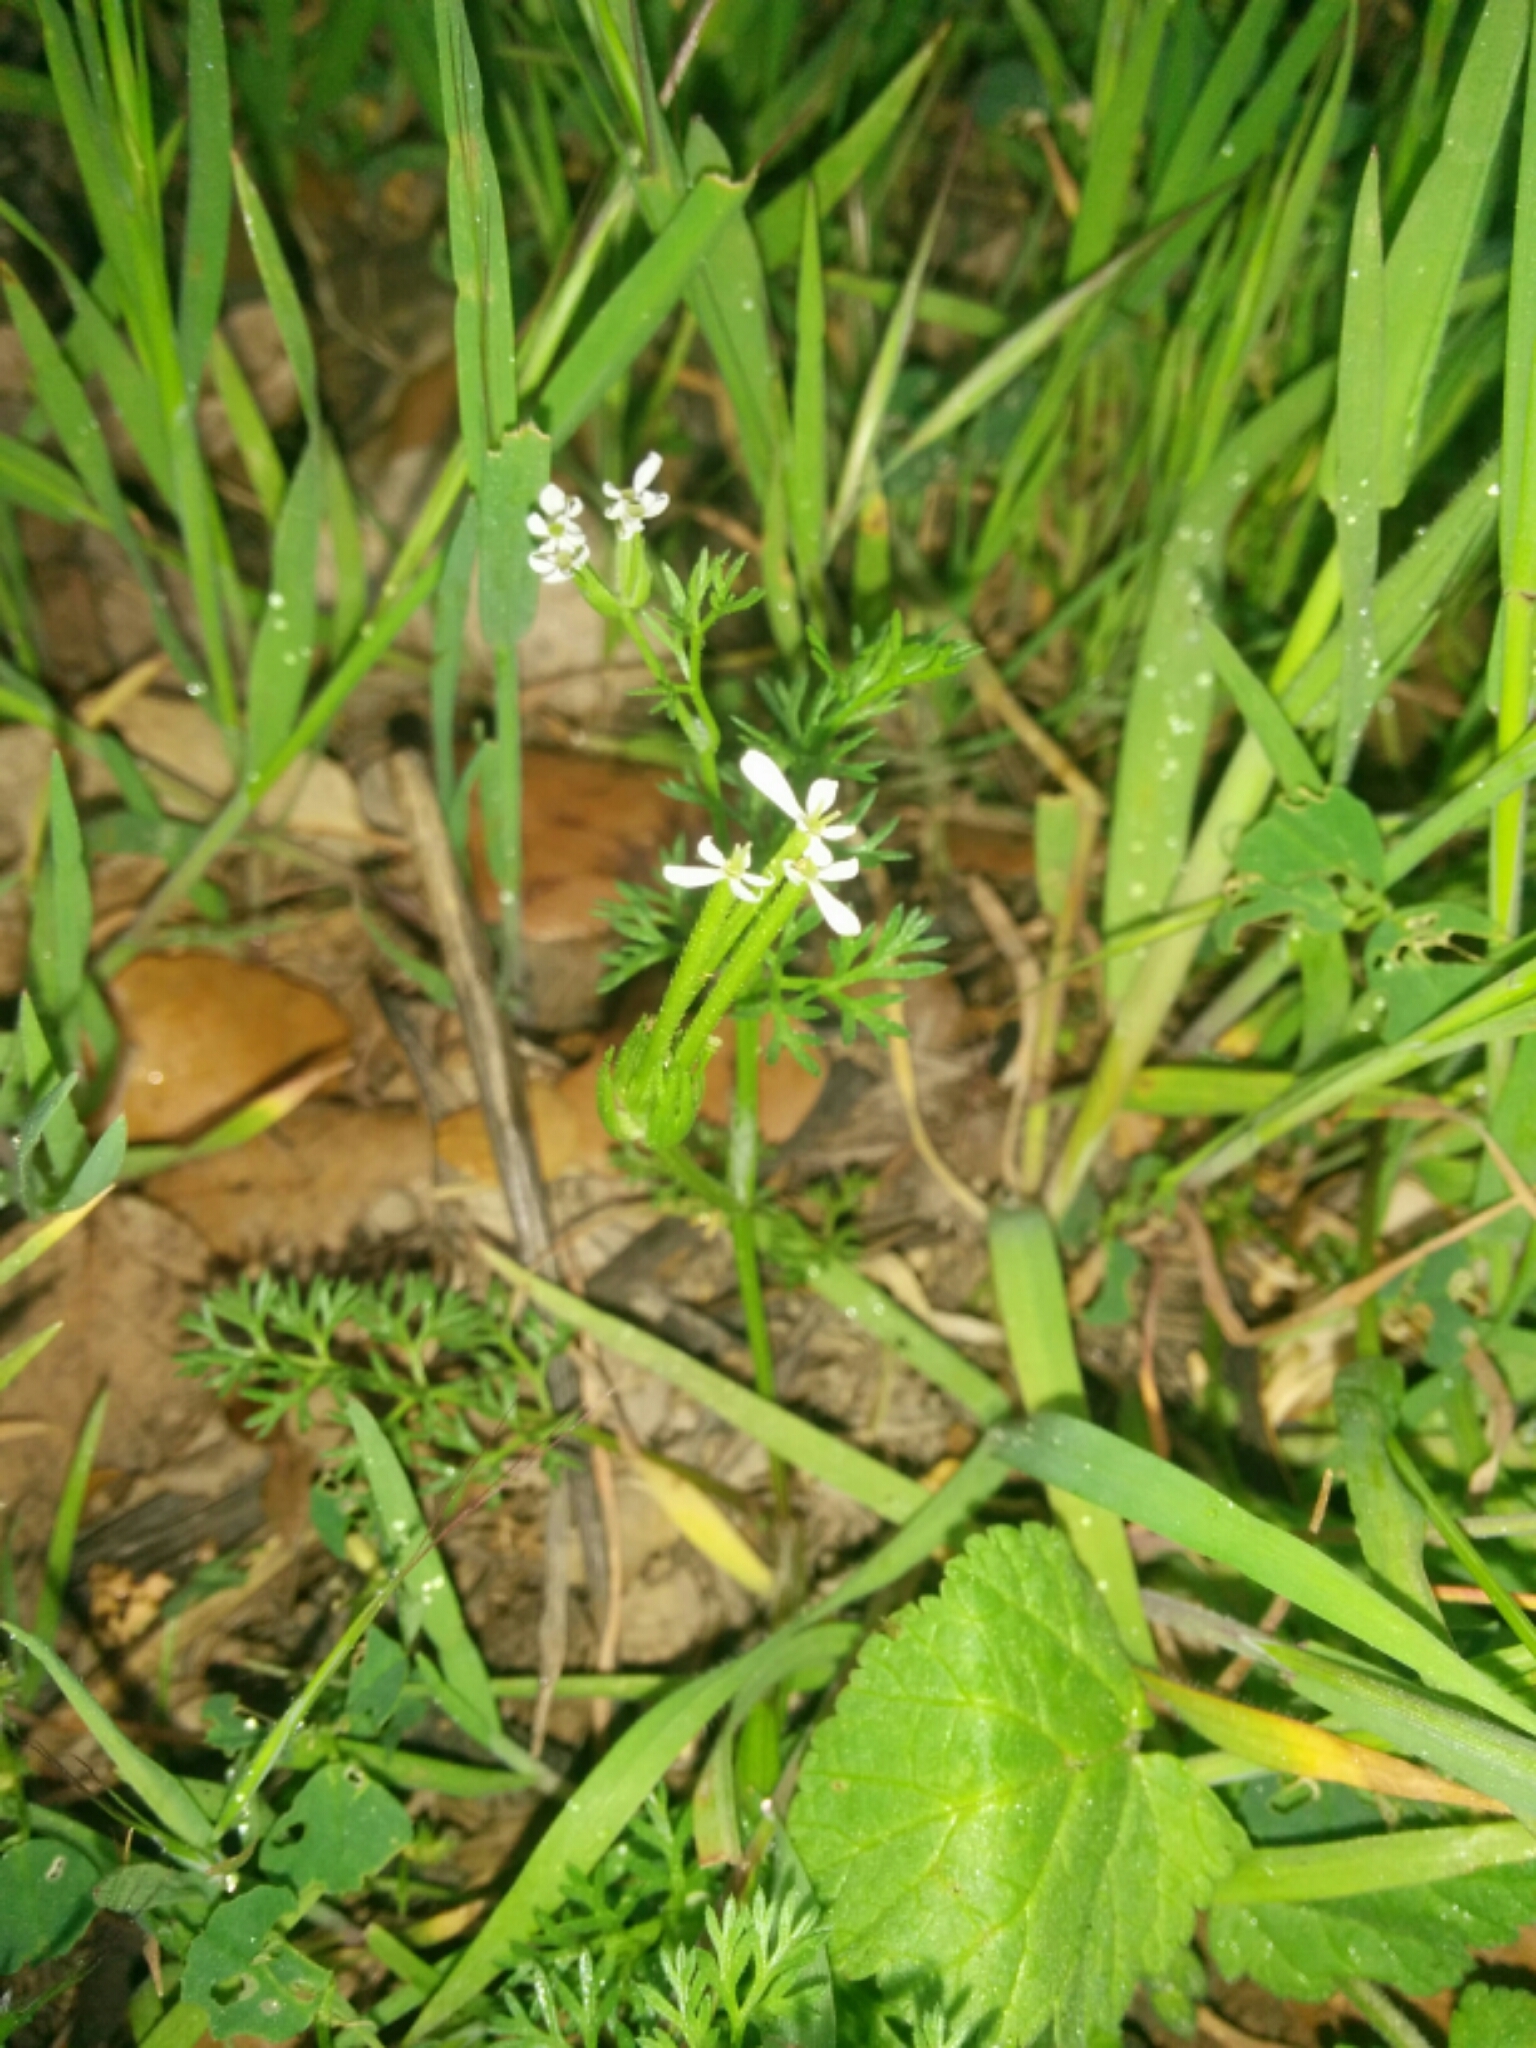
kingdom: Plantae
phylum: Tracheophyta
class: Magnoliopsida
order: Apiales
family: Apiaceae
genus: Scandix
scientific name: Scandix pecten-veneris
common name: Shepherd's-needle
